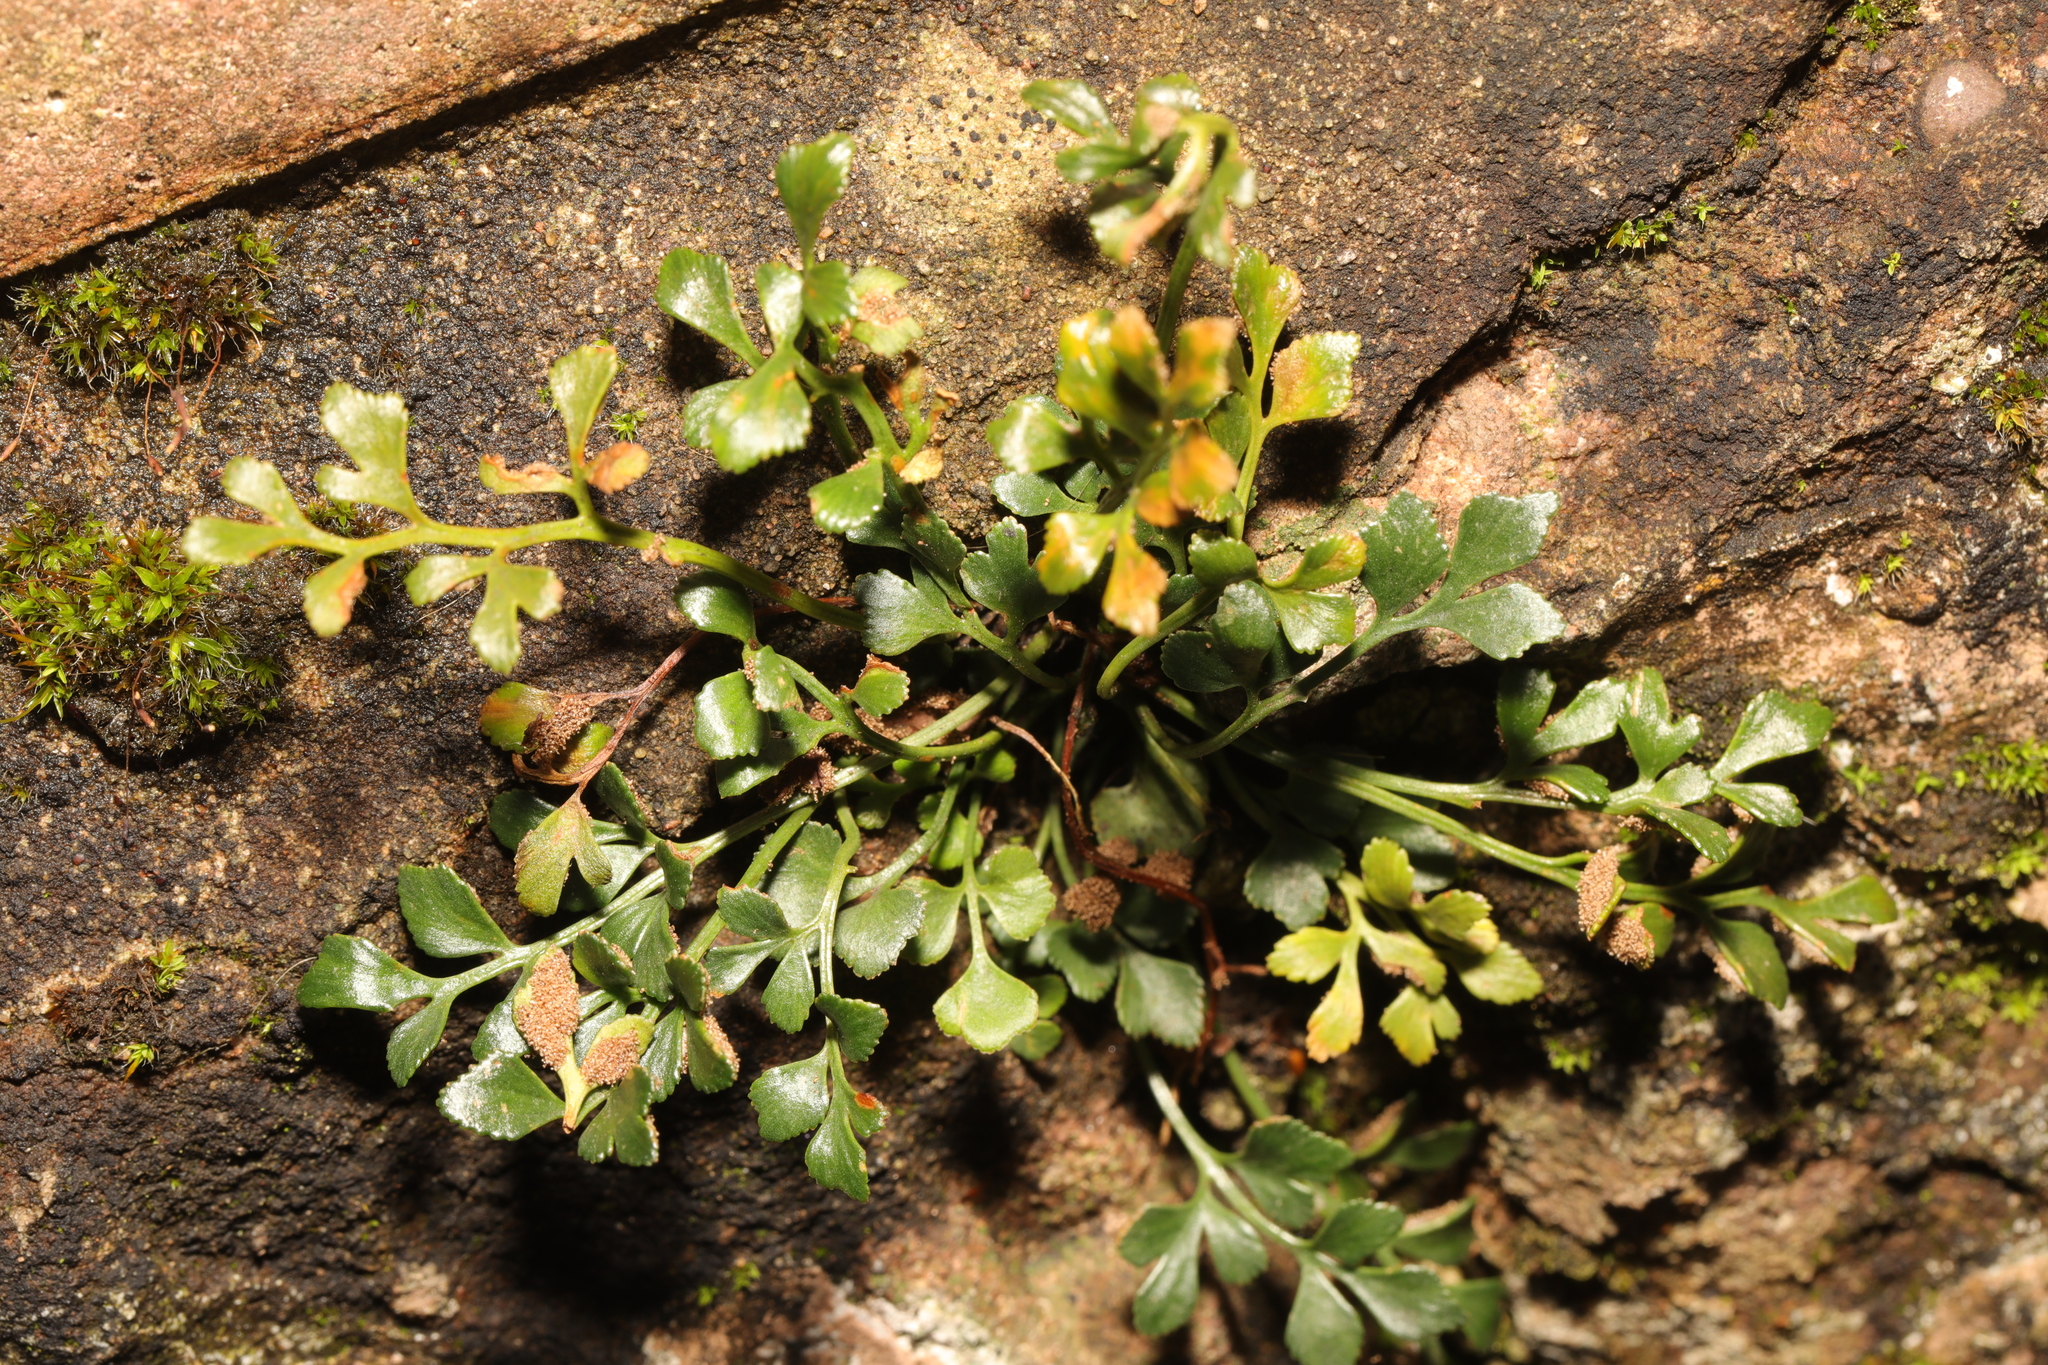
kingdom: Plantae
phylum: Tracheophyta
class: Polypodiopsida
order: Polypodiales
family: Aspleniaceae
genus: Asplenium
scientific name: Asplenium ruta-muraria
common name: Wall-rue
